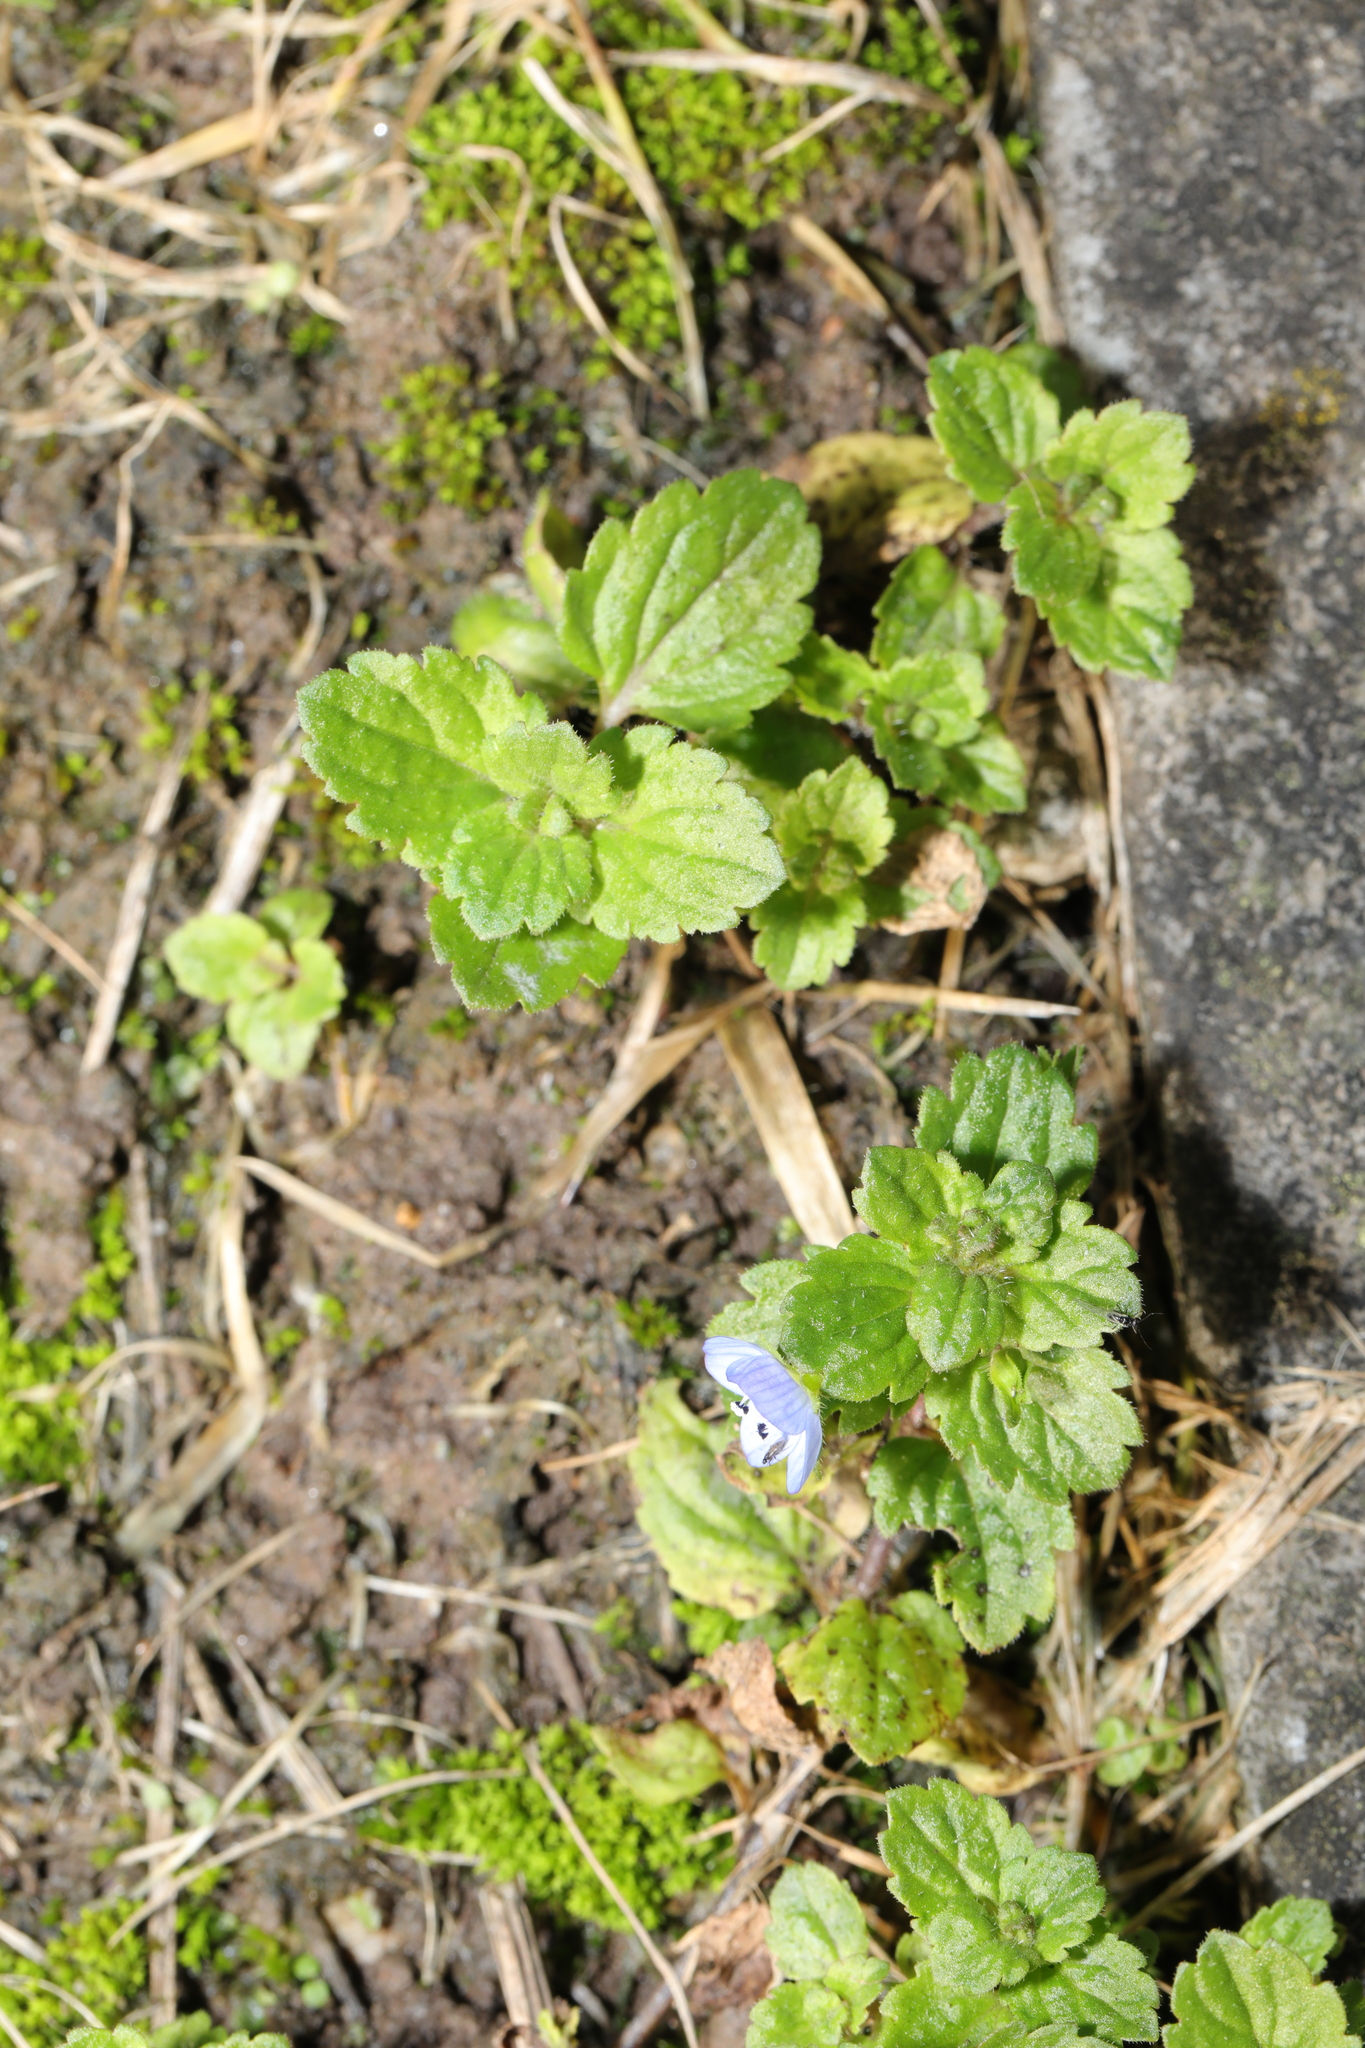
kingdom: Plantae
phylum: Tracheophyta
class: Magnoliopsida
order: Lamiales
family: Plantaginaceae
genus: Veronica
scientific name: Veronica persica
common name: Common field-speedwell
